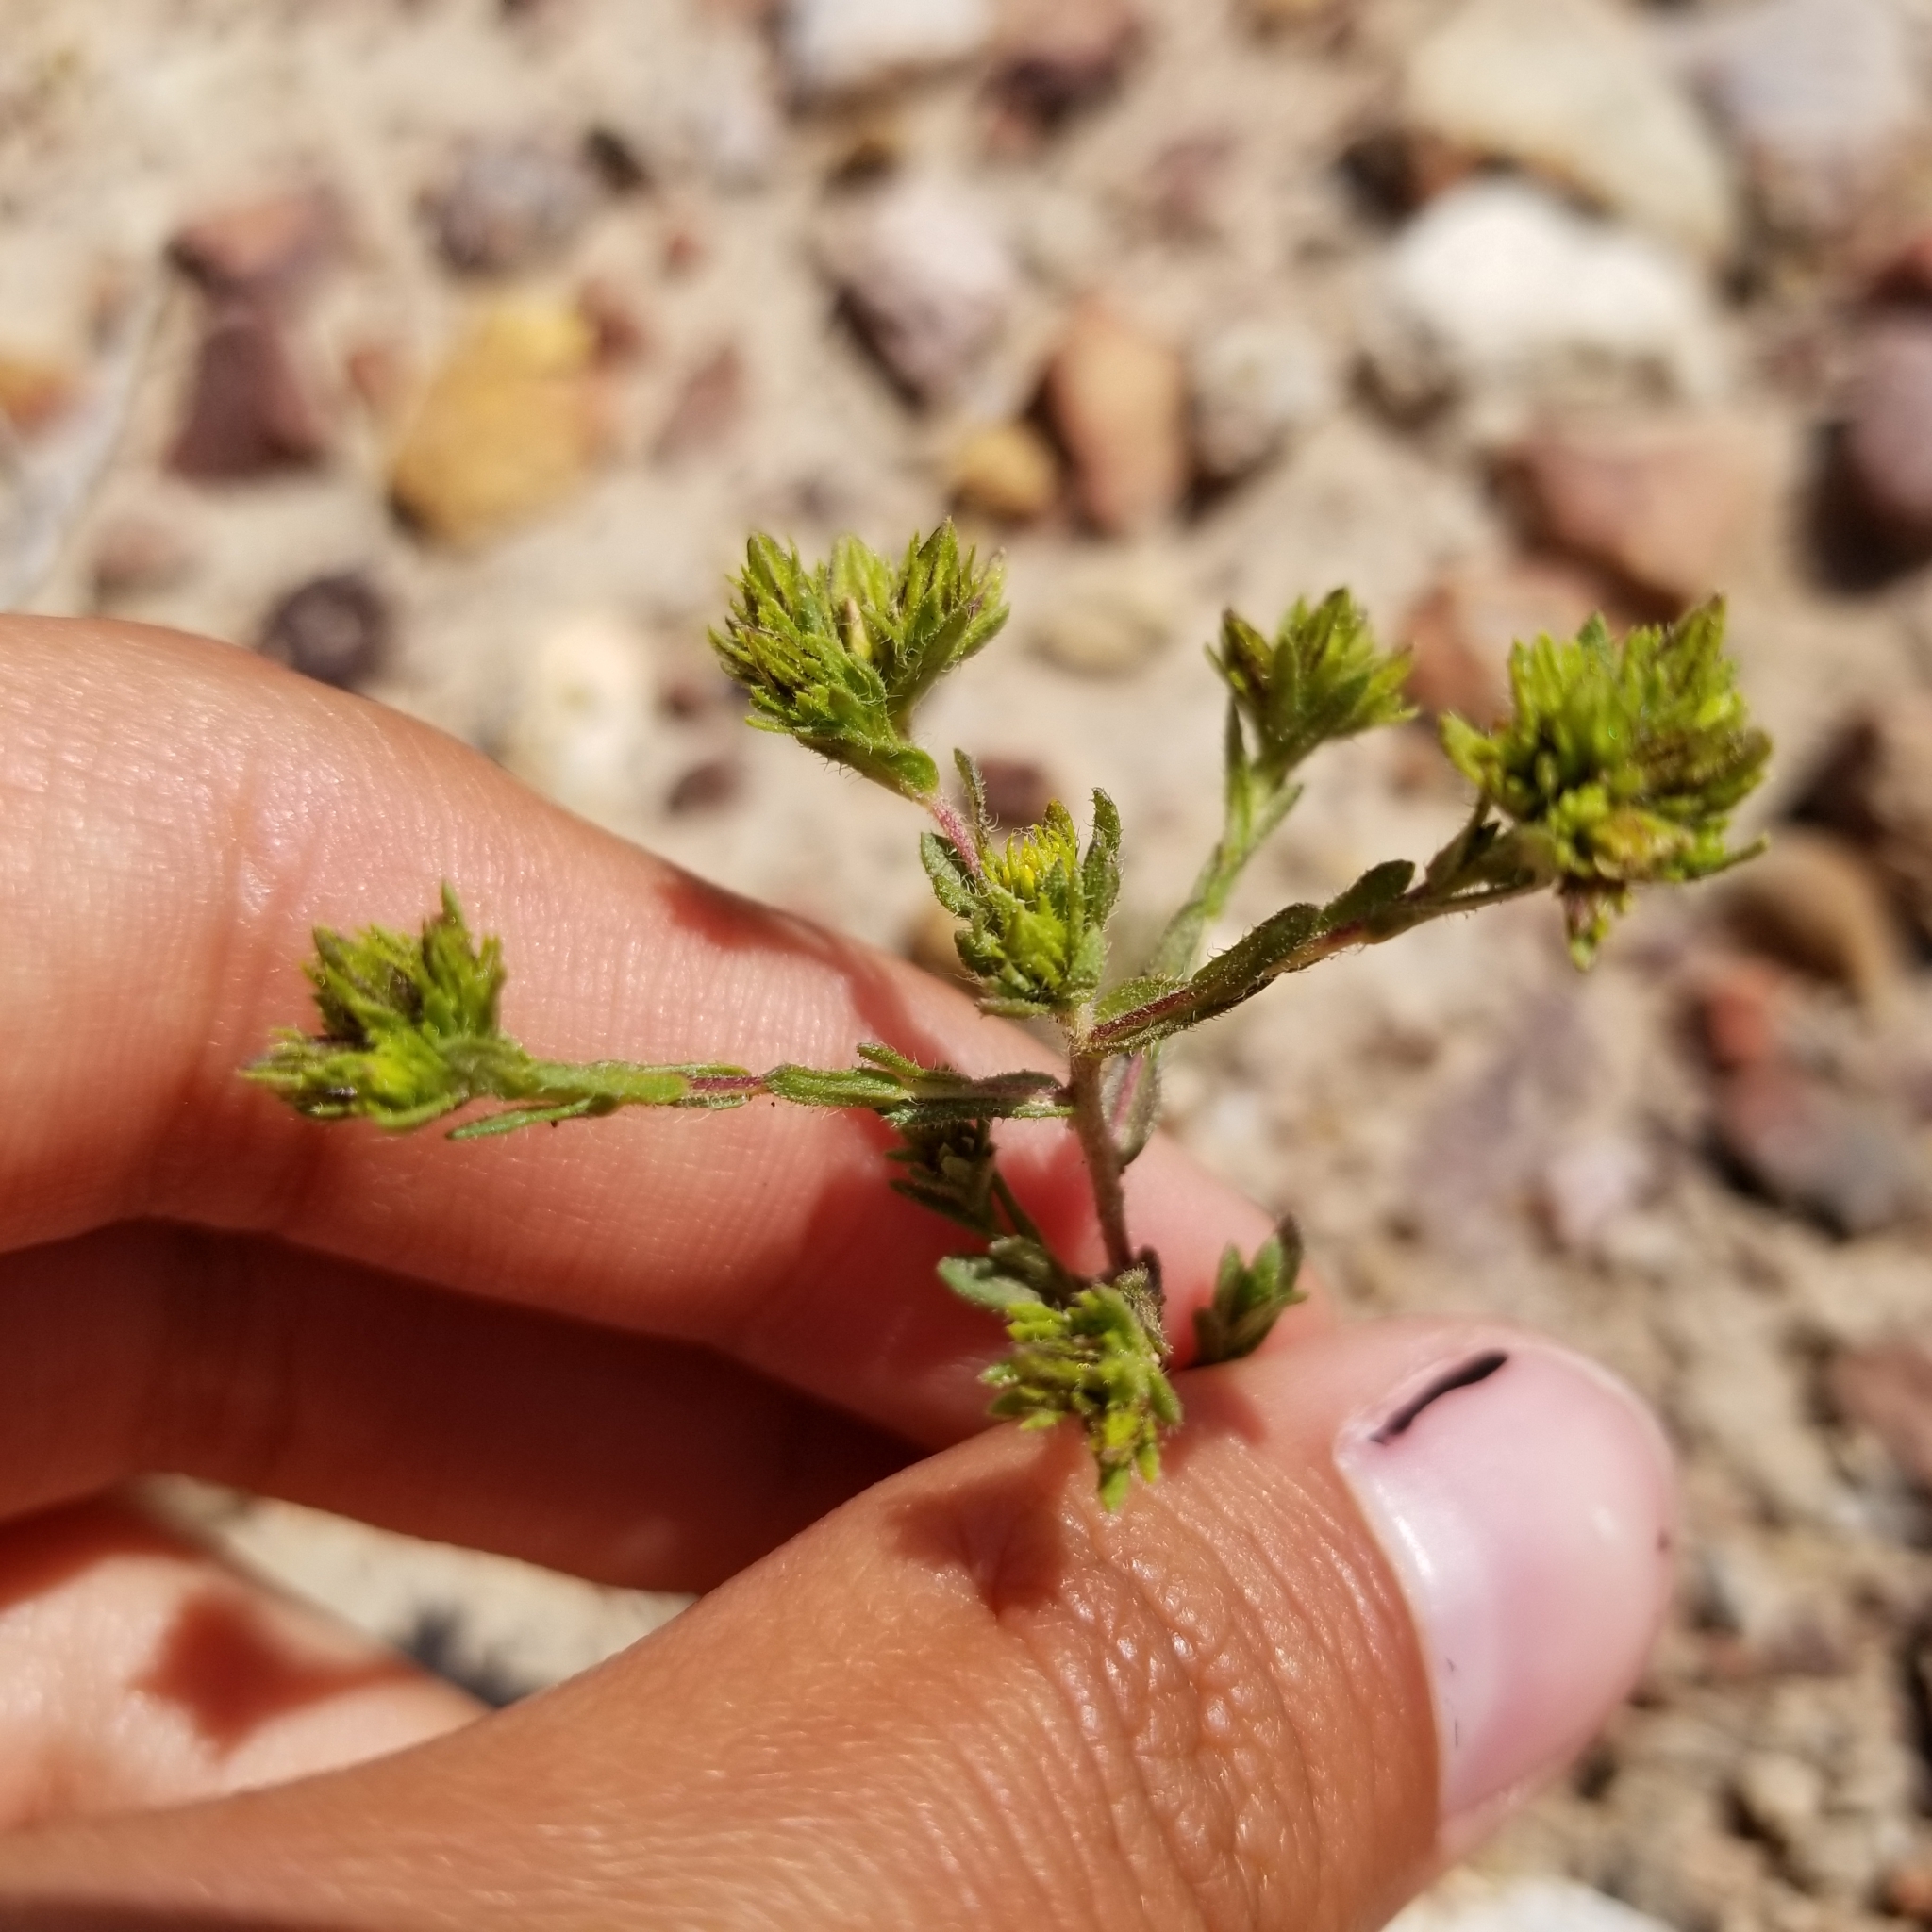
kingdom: Plantae
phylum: Tracheophyta
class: Magnoliopsida
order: Asterales
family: Asteraceae
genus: Deinandra
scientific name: Deinandra fasciculata
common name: Clustered tarweed
